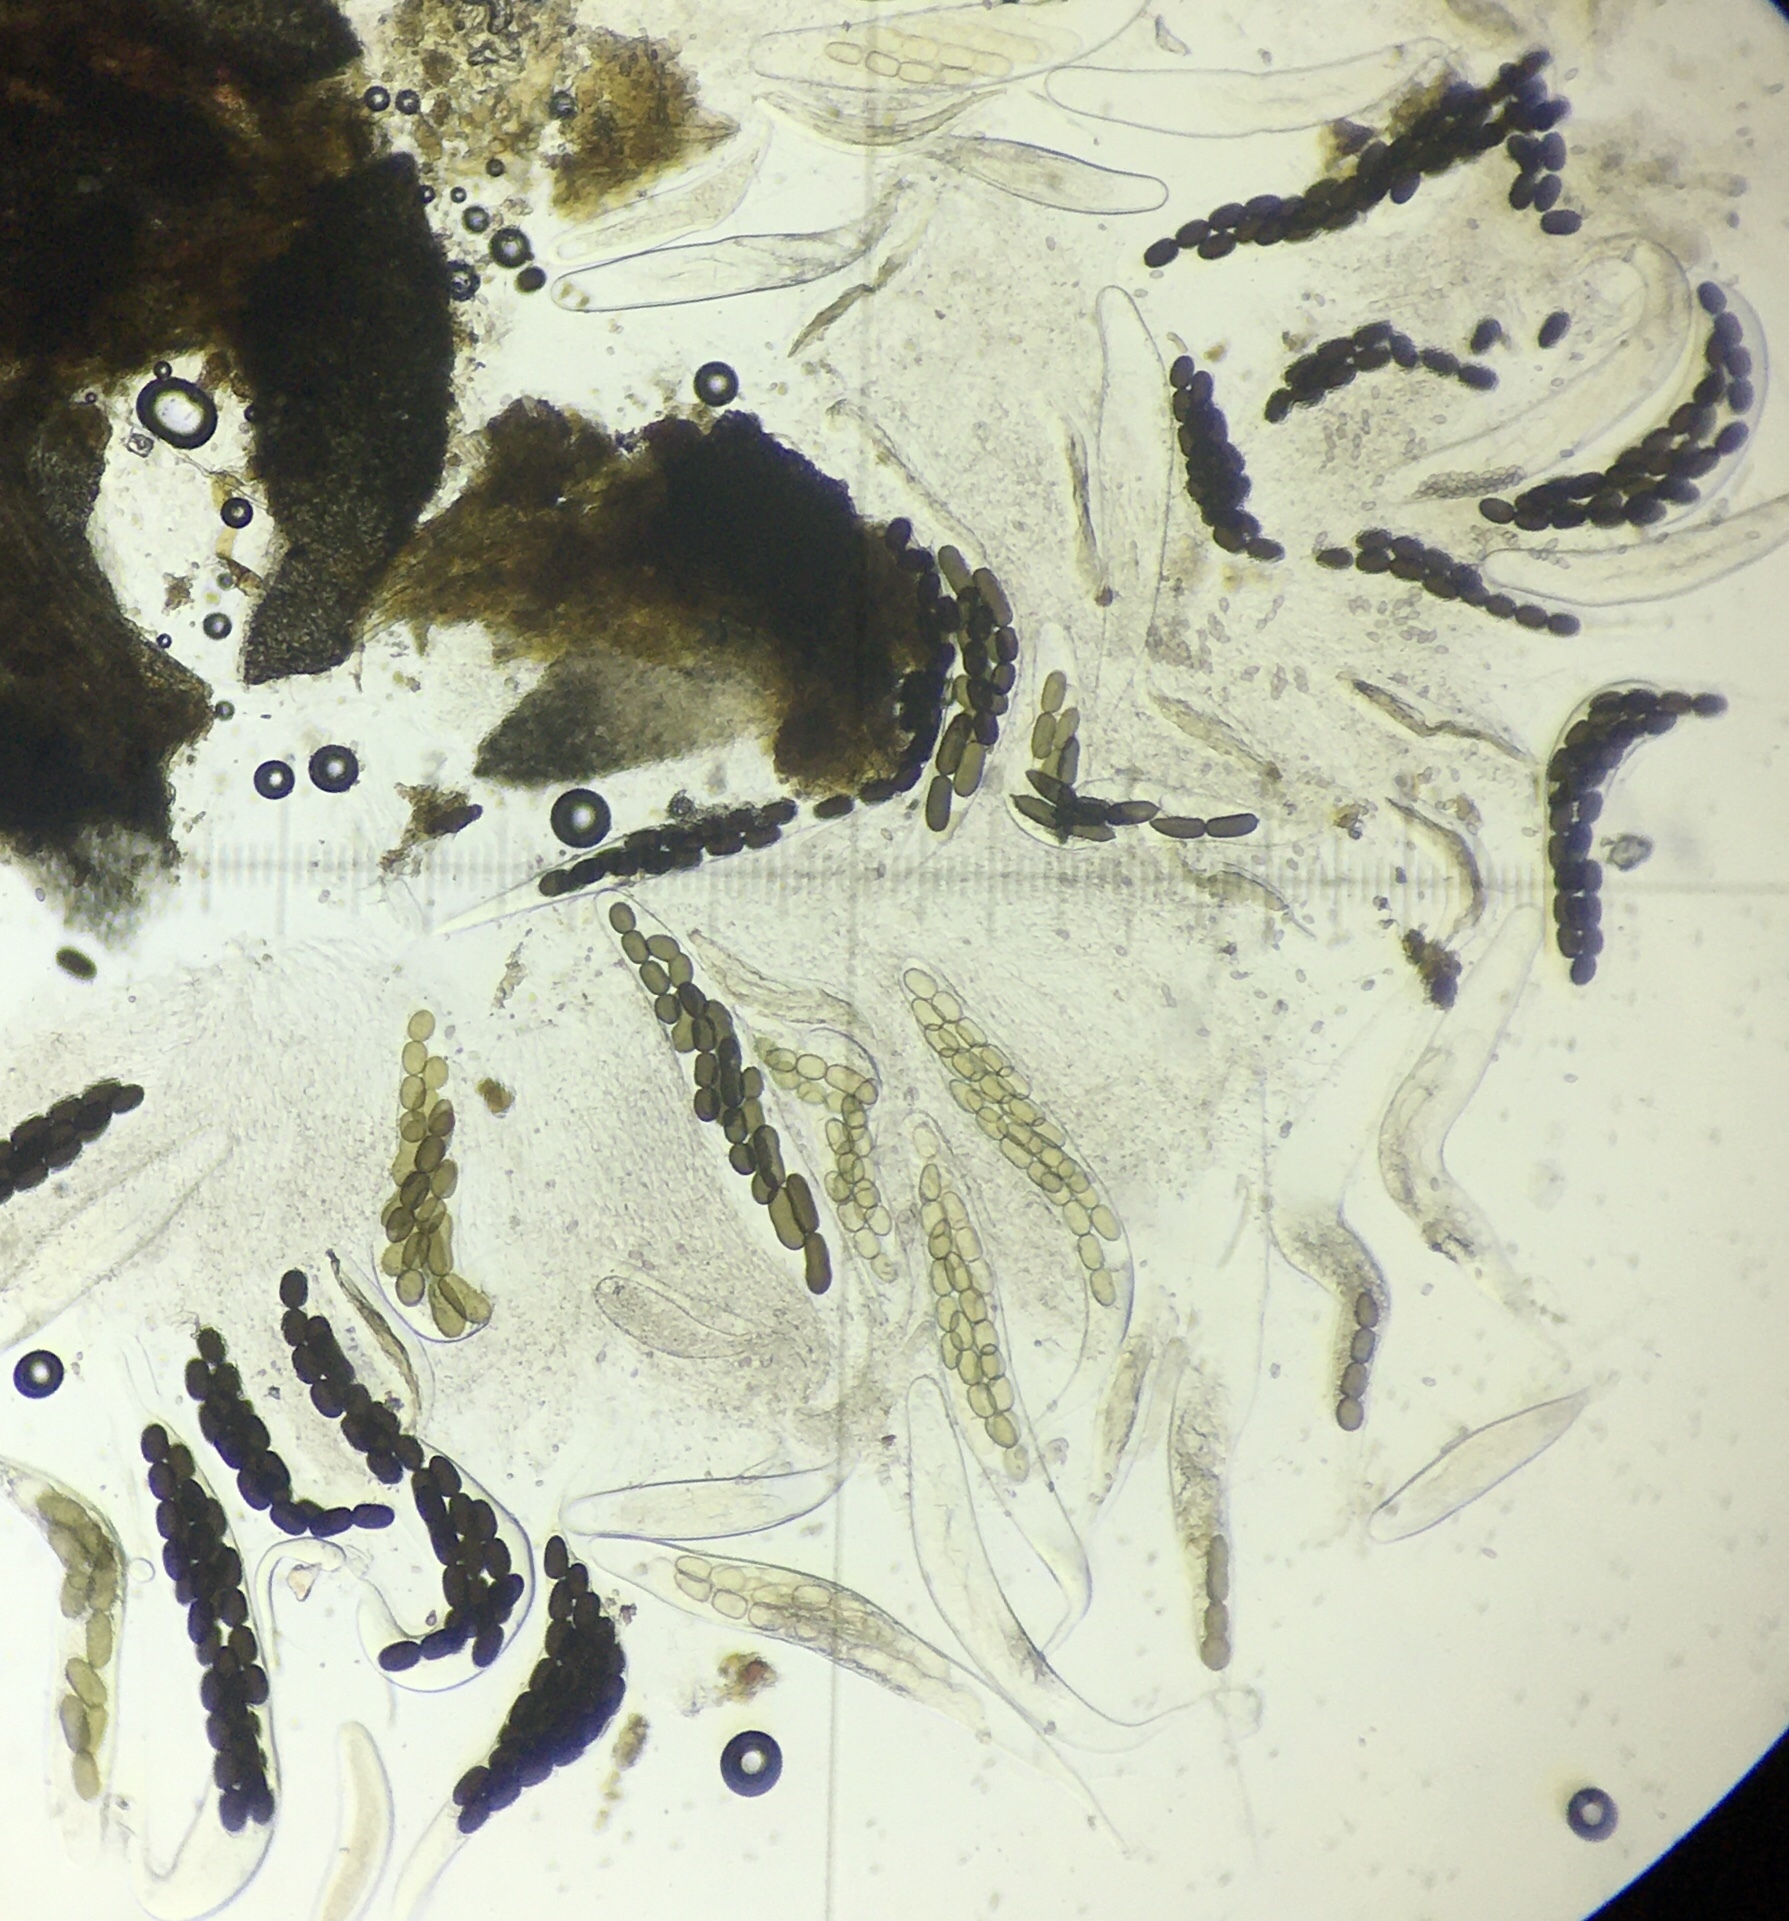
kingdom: Fungi
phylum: Ascomycota
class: Dothideomycetes
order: Pleosporales
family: Sporormiaceae
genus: Preussia
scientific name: Preussia longisporopsis
